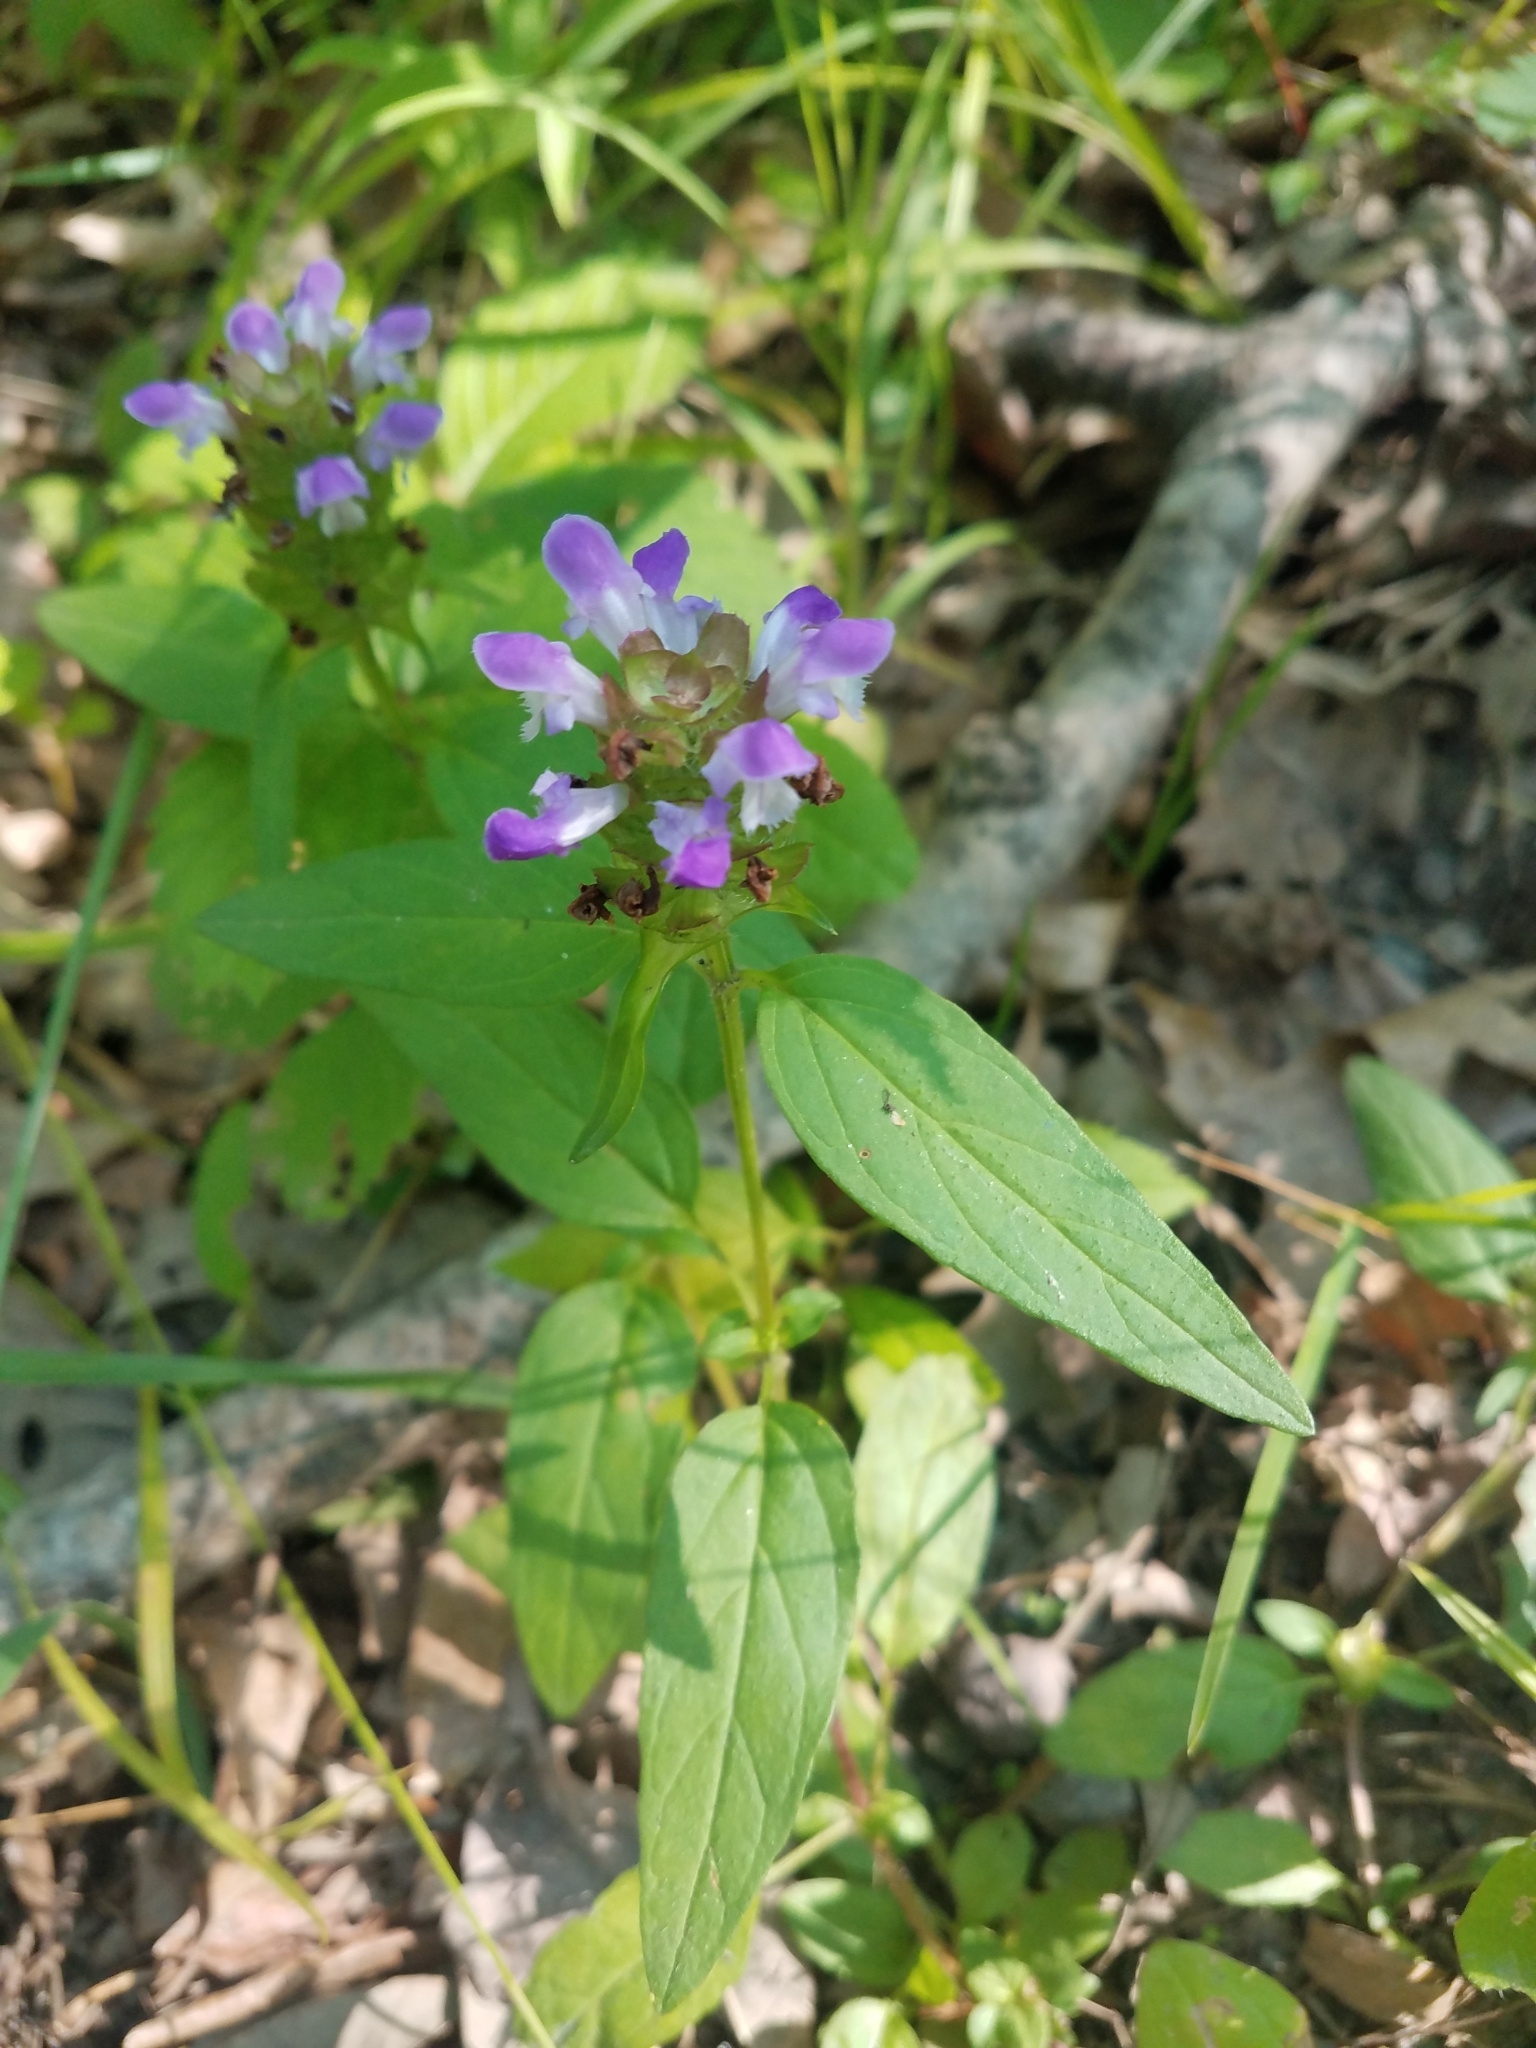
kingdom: Plantae
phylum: Tracheophyta
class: Magnoliopsida
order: Lamiales
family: Lamiaceae
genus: Prunella
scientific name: Prunella vulgaris
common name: Heal-all
